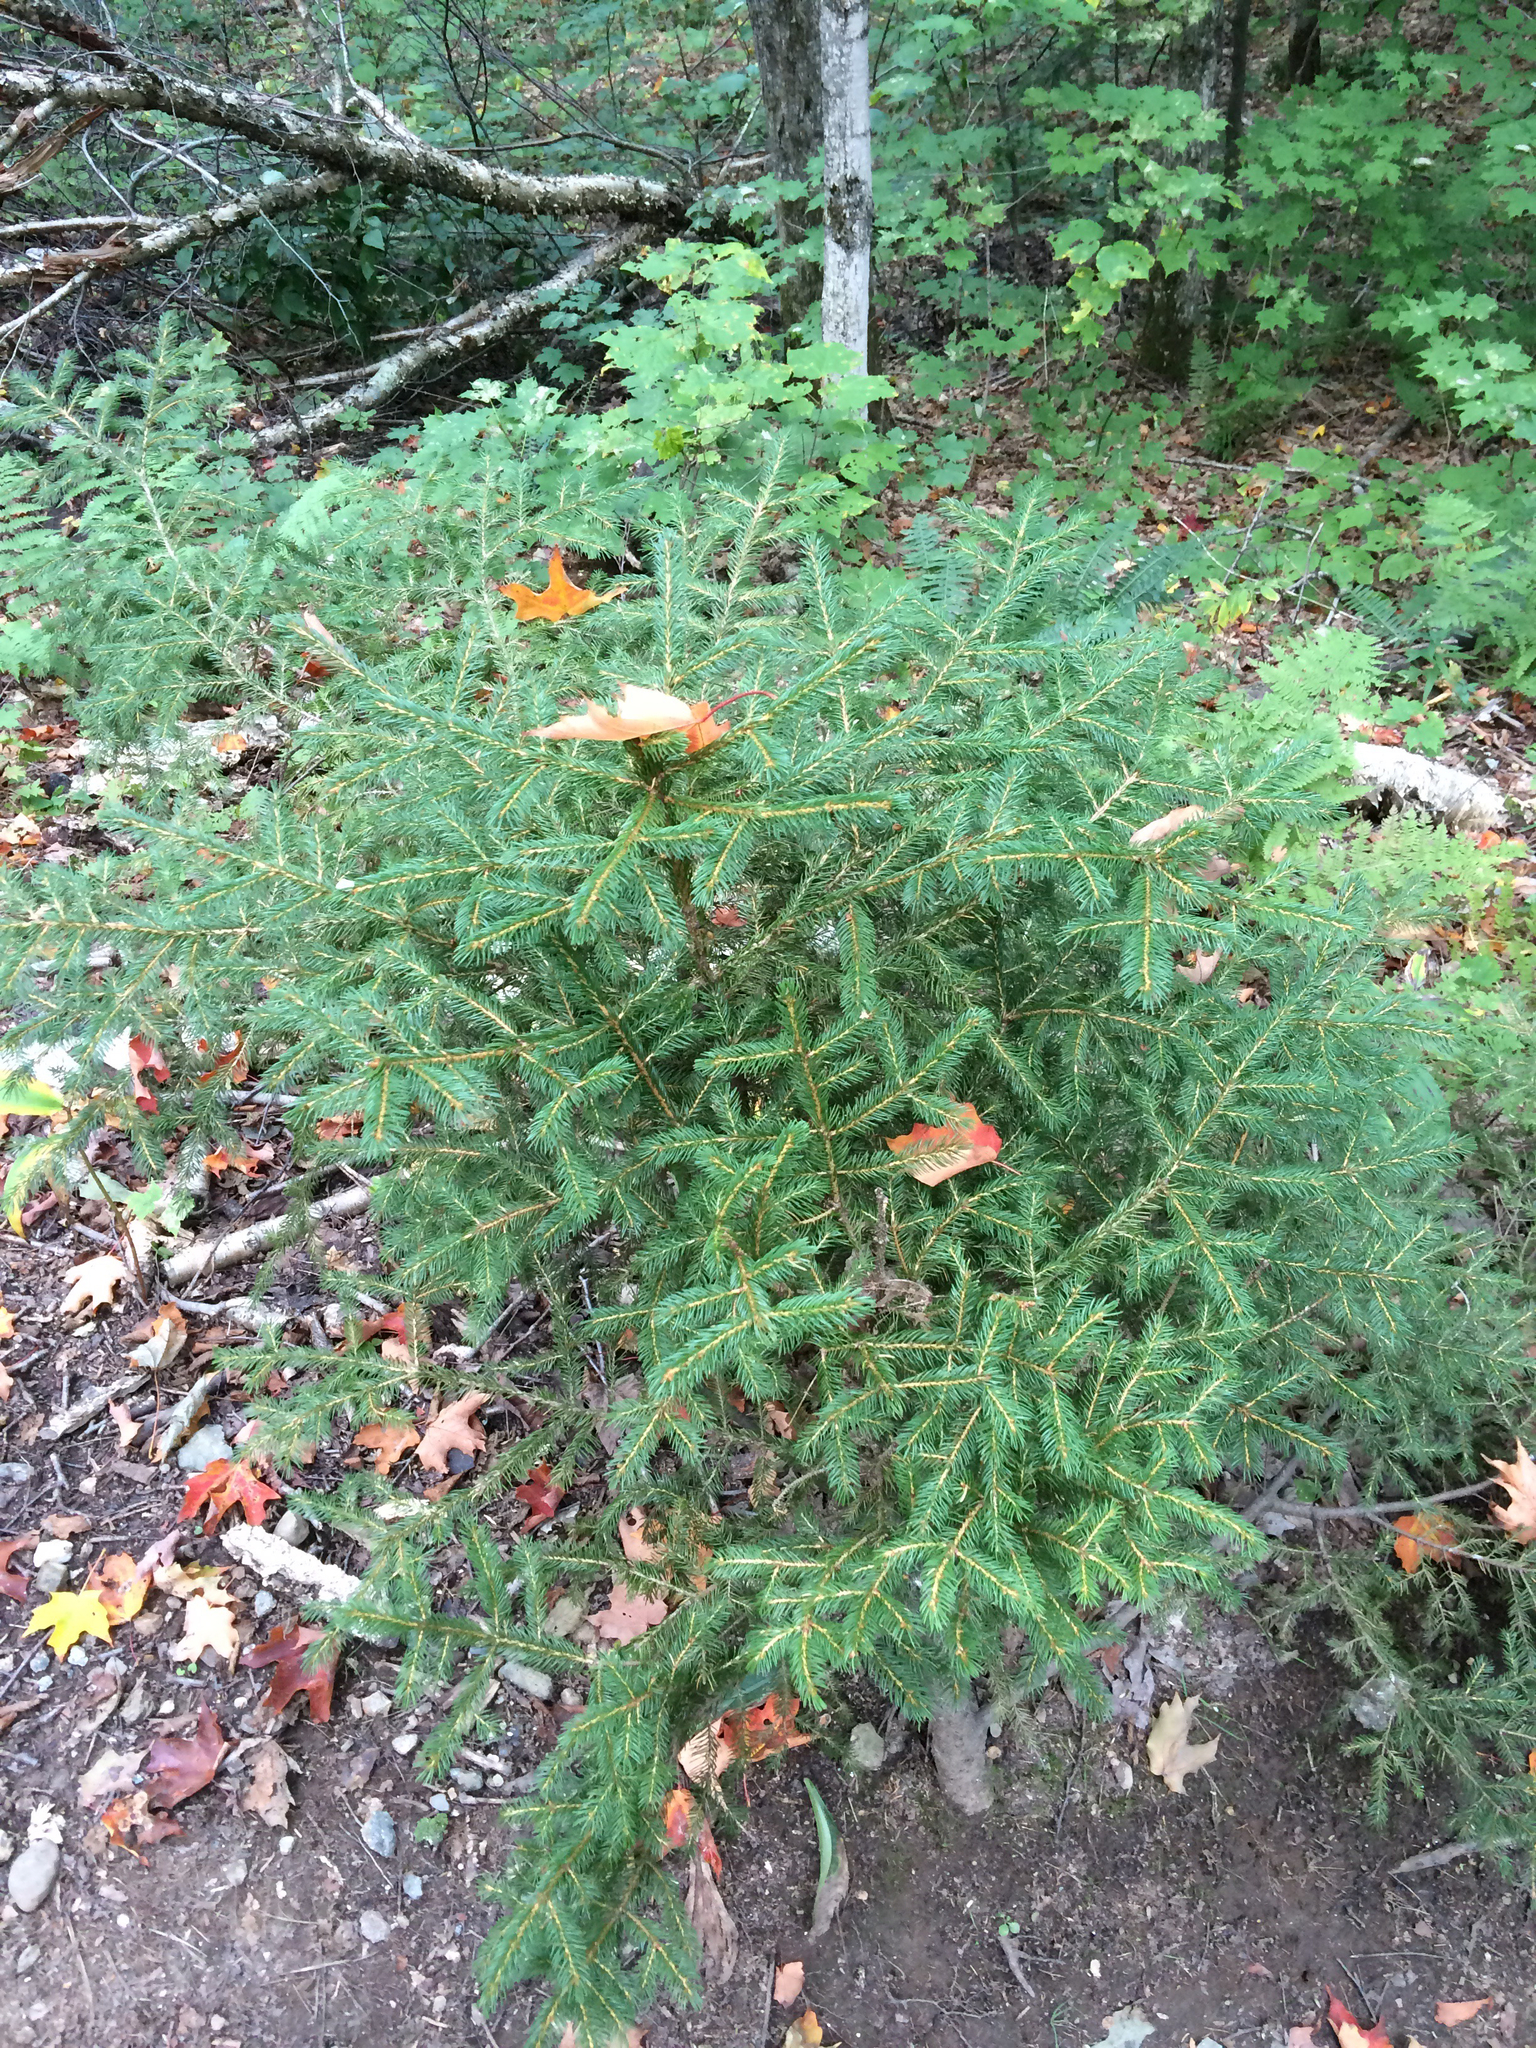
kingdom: Plantae
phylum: Tracheophyta
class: Pinopsida
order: Pinales
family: Pinaceae
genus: Picea
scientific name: Picea rubens
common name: Red spruce
